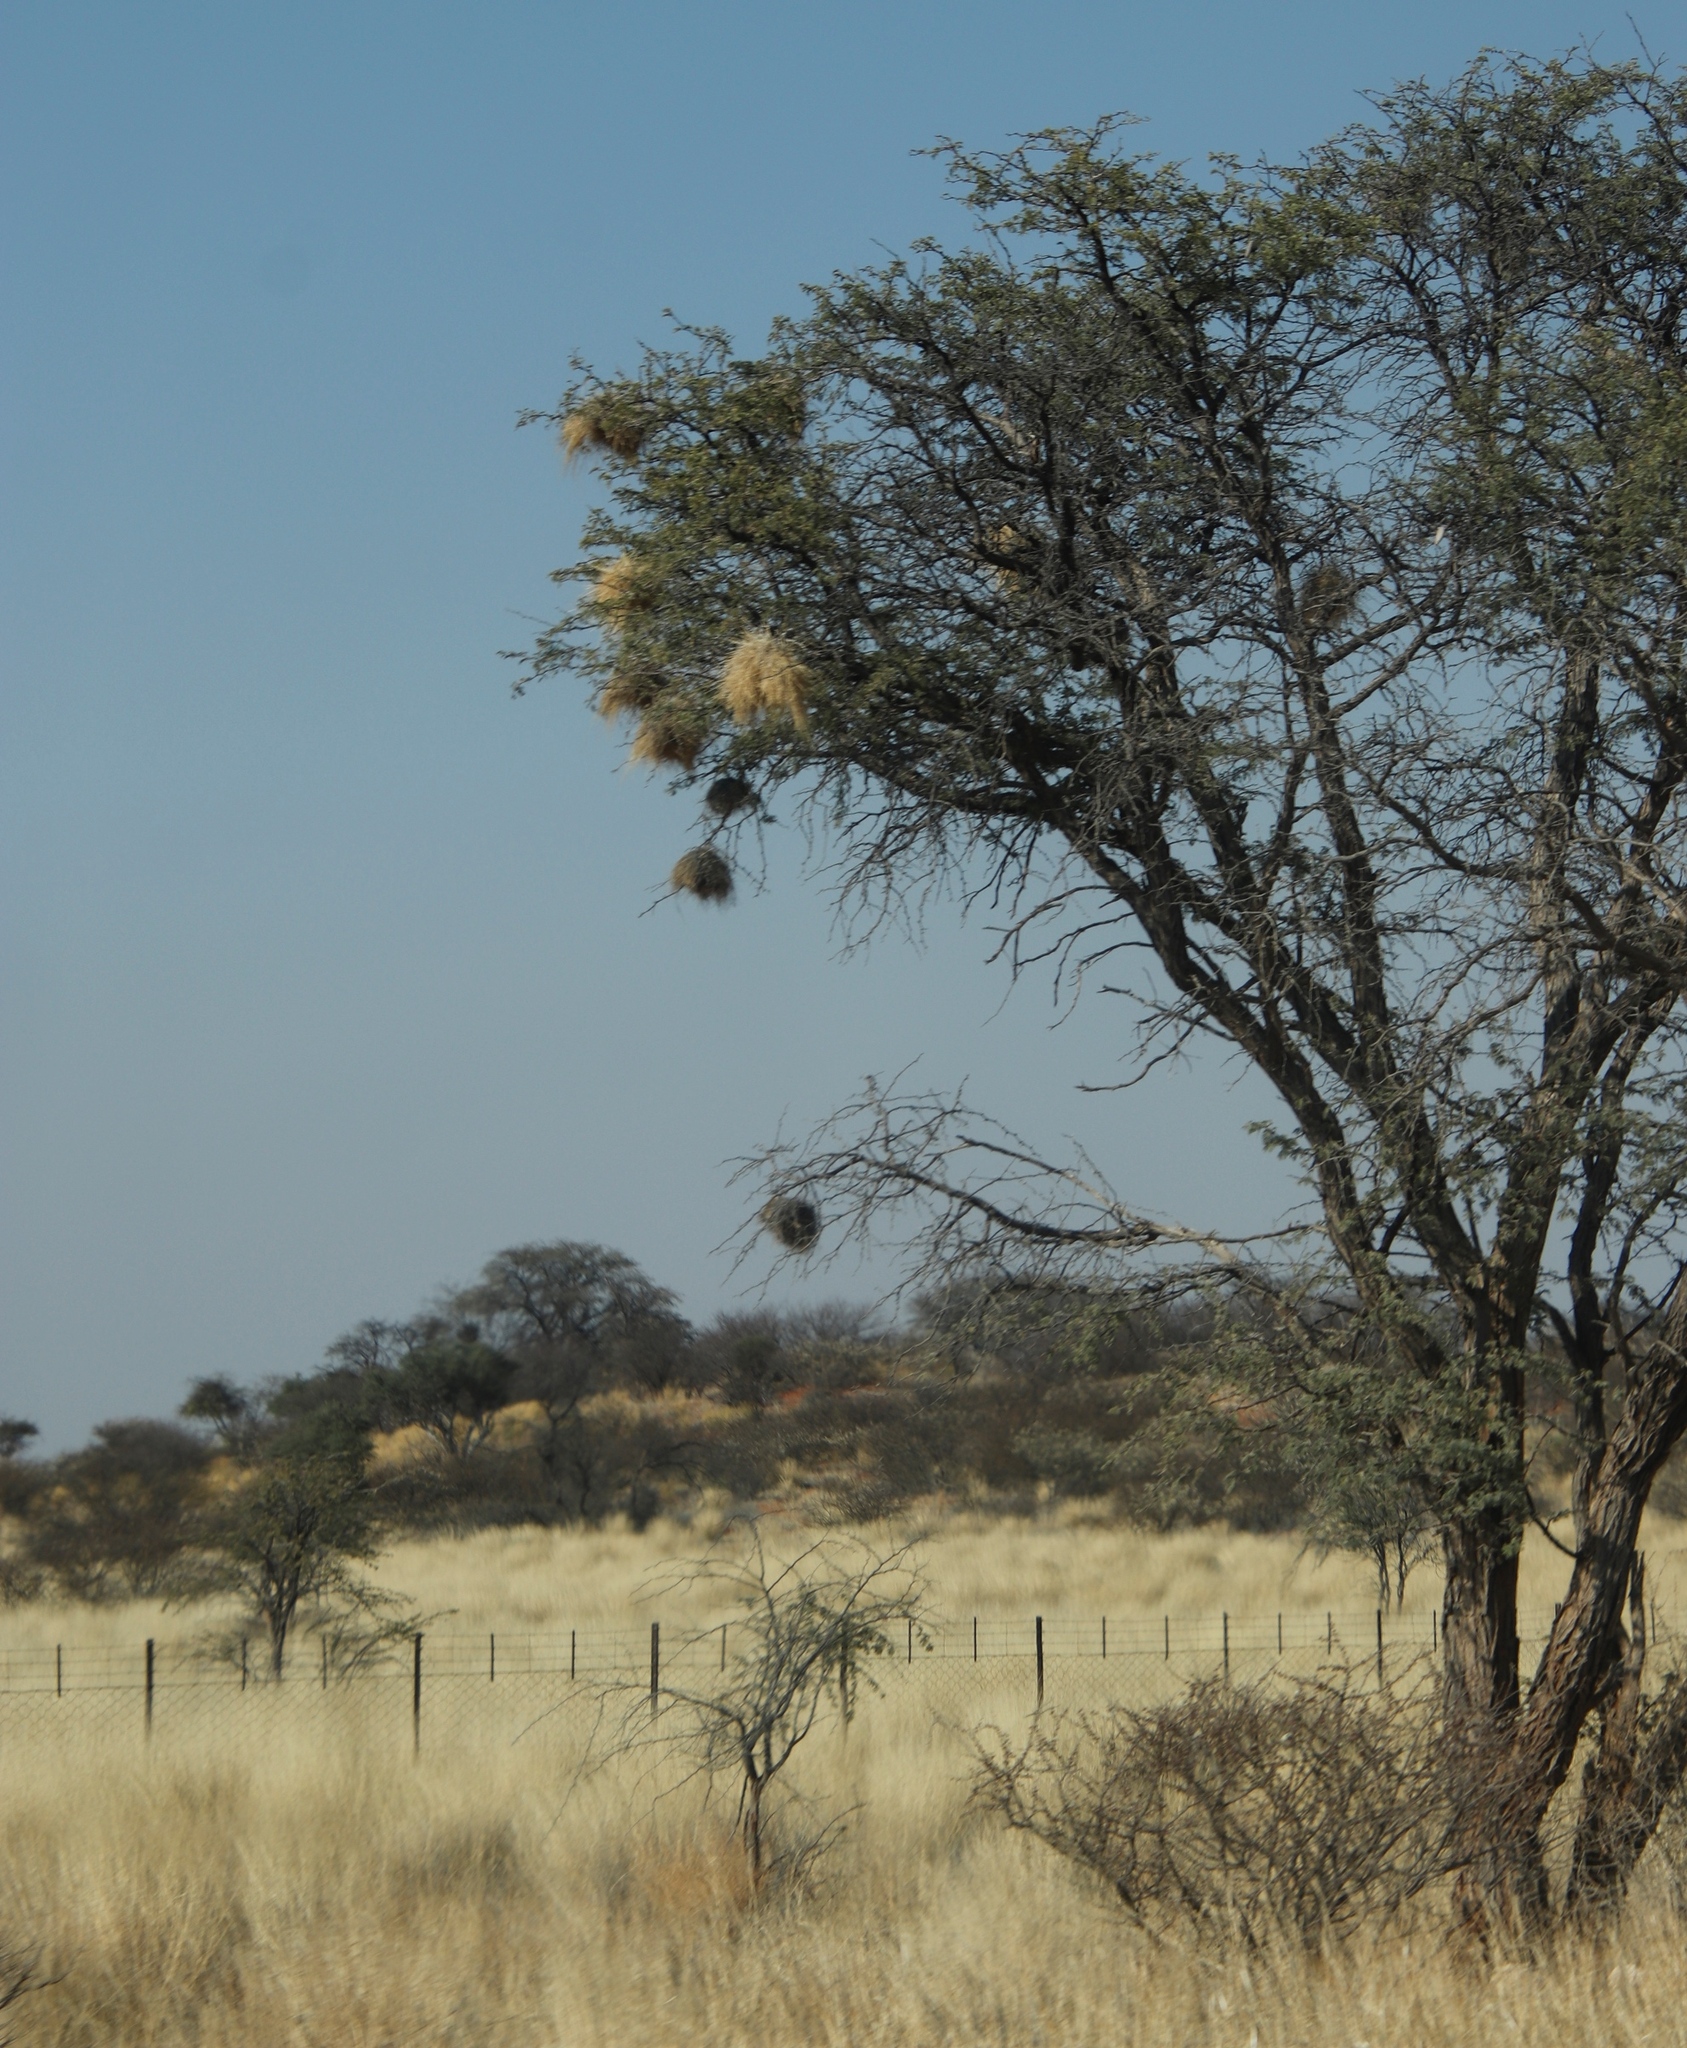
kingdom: Animalia
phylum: Chordata
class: Aves
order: Passeriformes
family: Passeridae
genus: Plocepasser
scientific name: Plocepasser mahali
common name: White-browed sparrow-weaver
